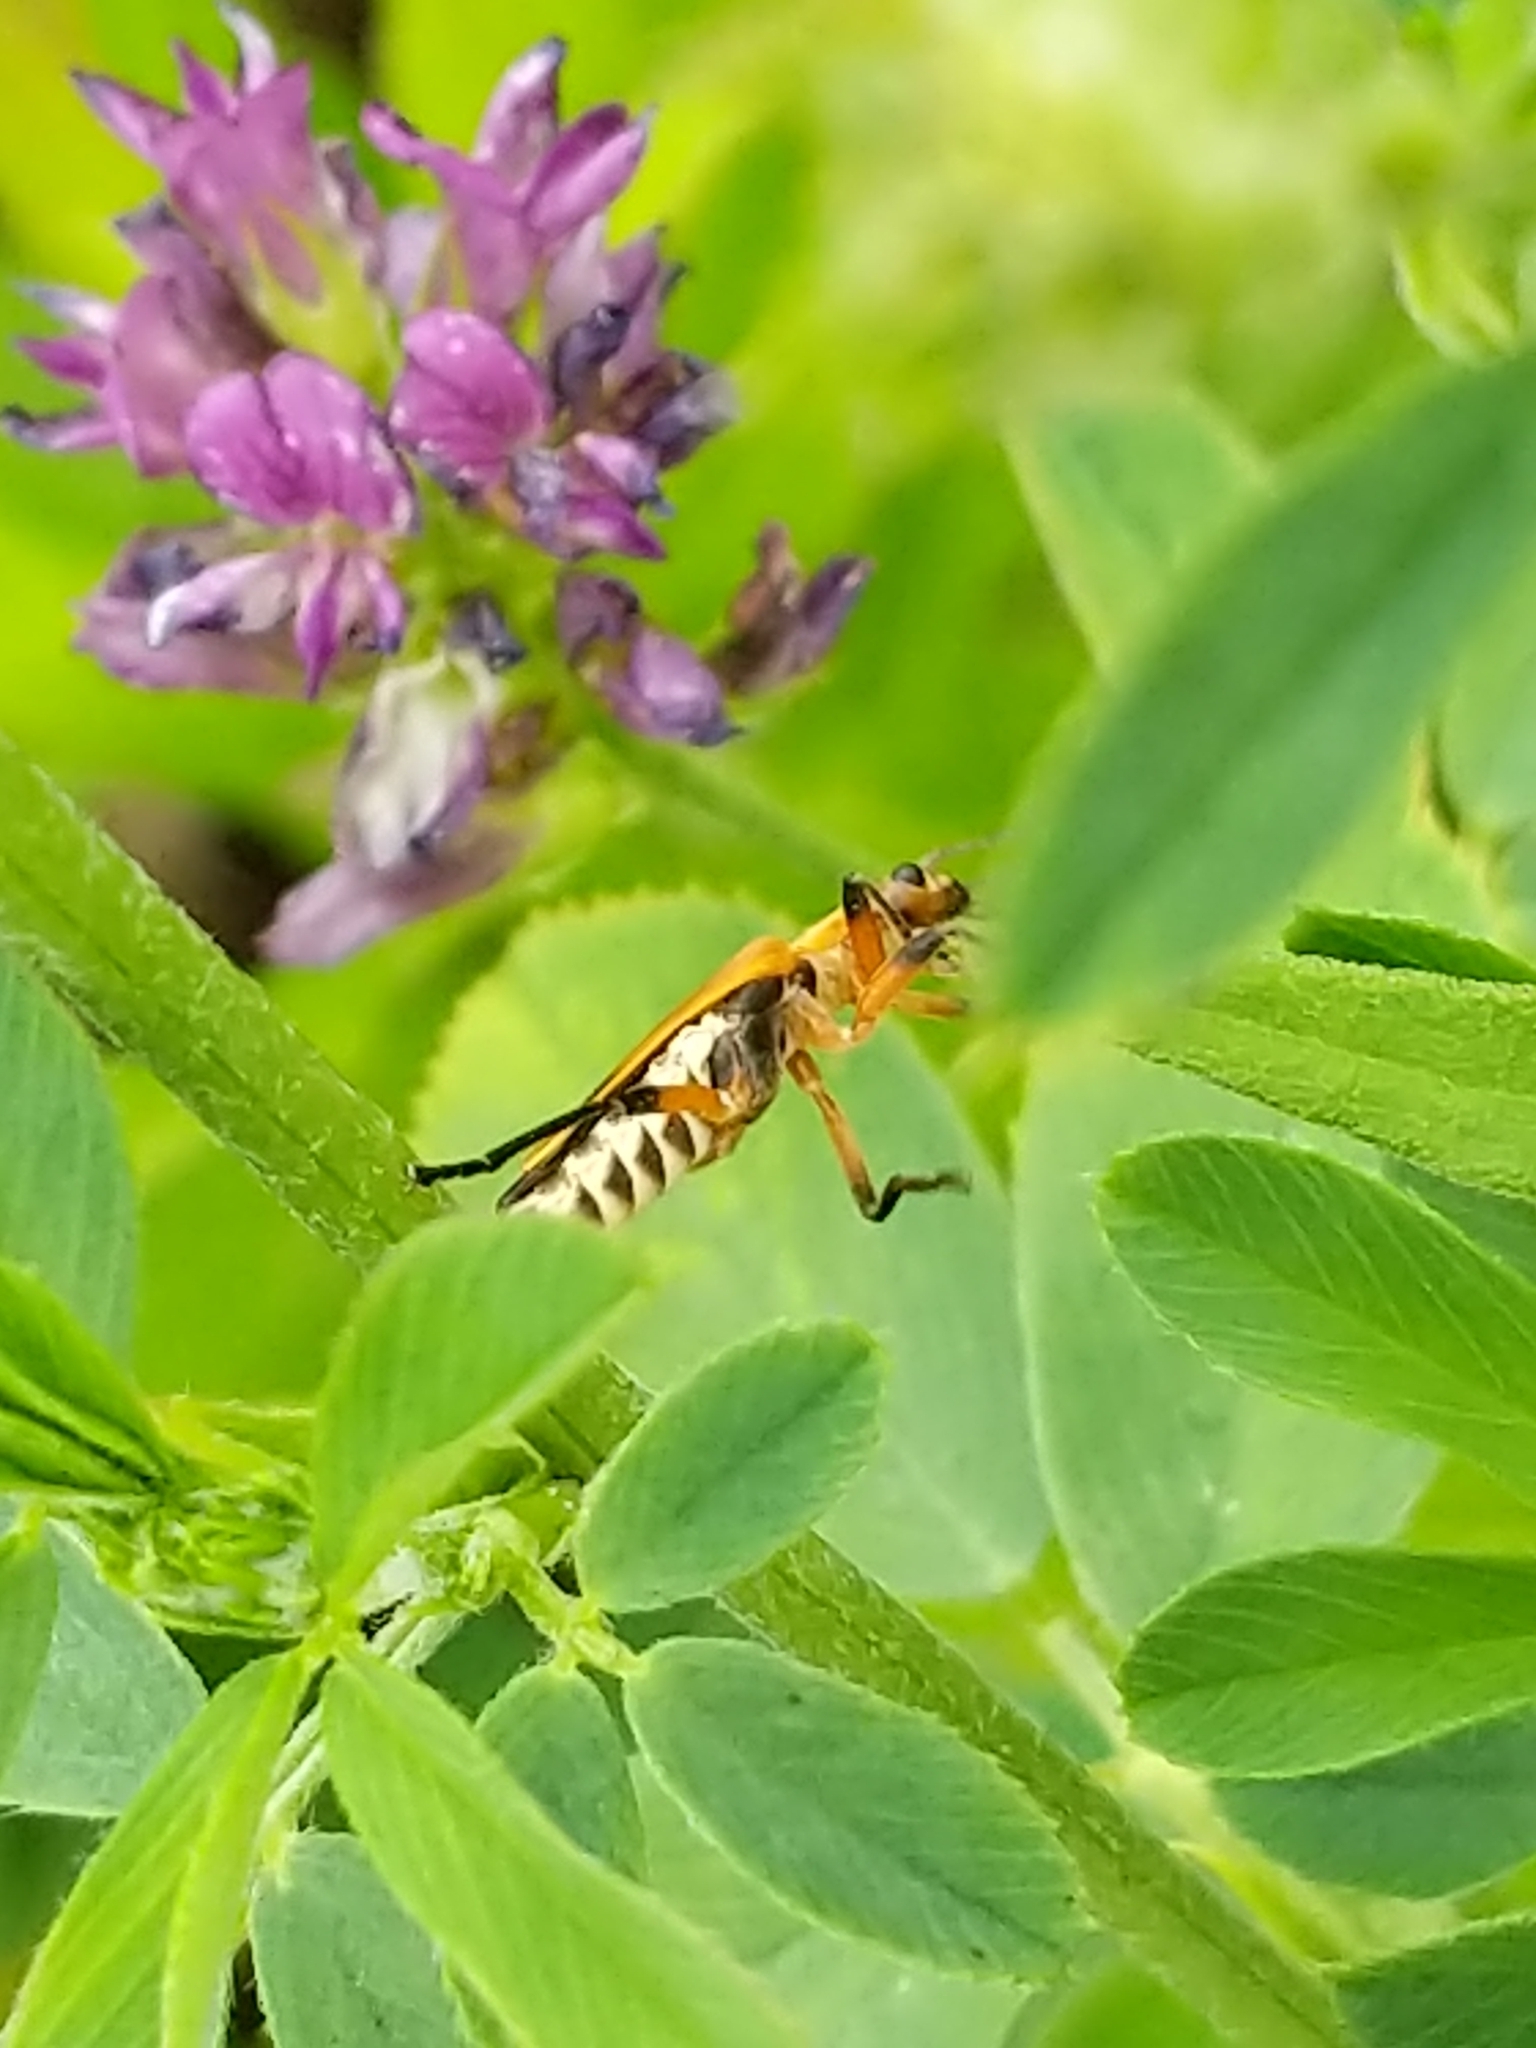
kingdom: Animalia
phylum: Arthropoda
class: Insecta
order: Coleoptera
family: Cantharidae
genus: Chauliognathus
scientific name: Chauliognathus marginatus
